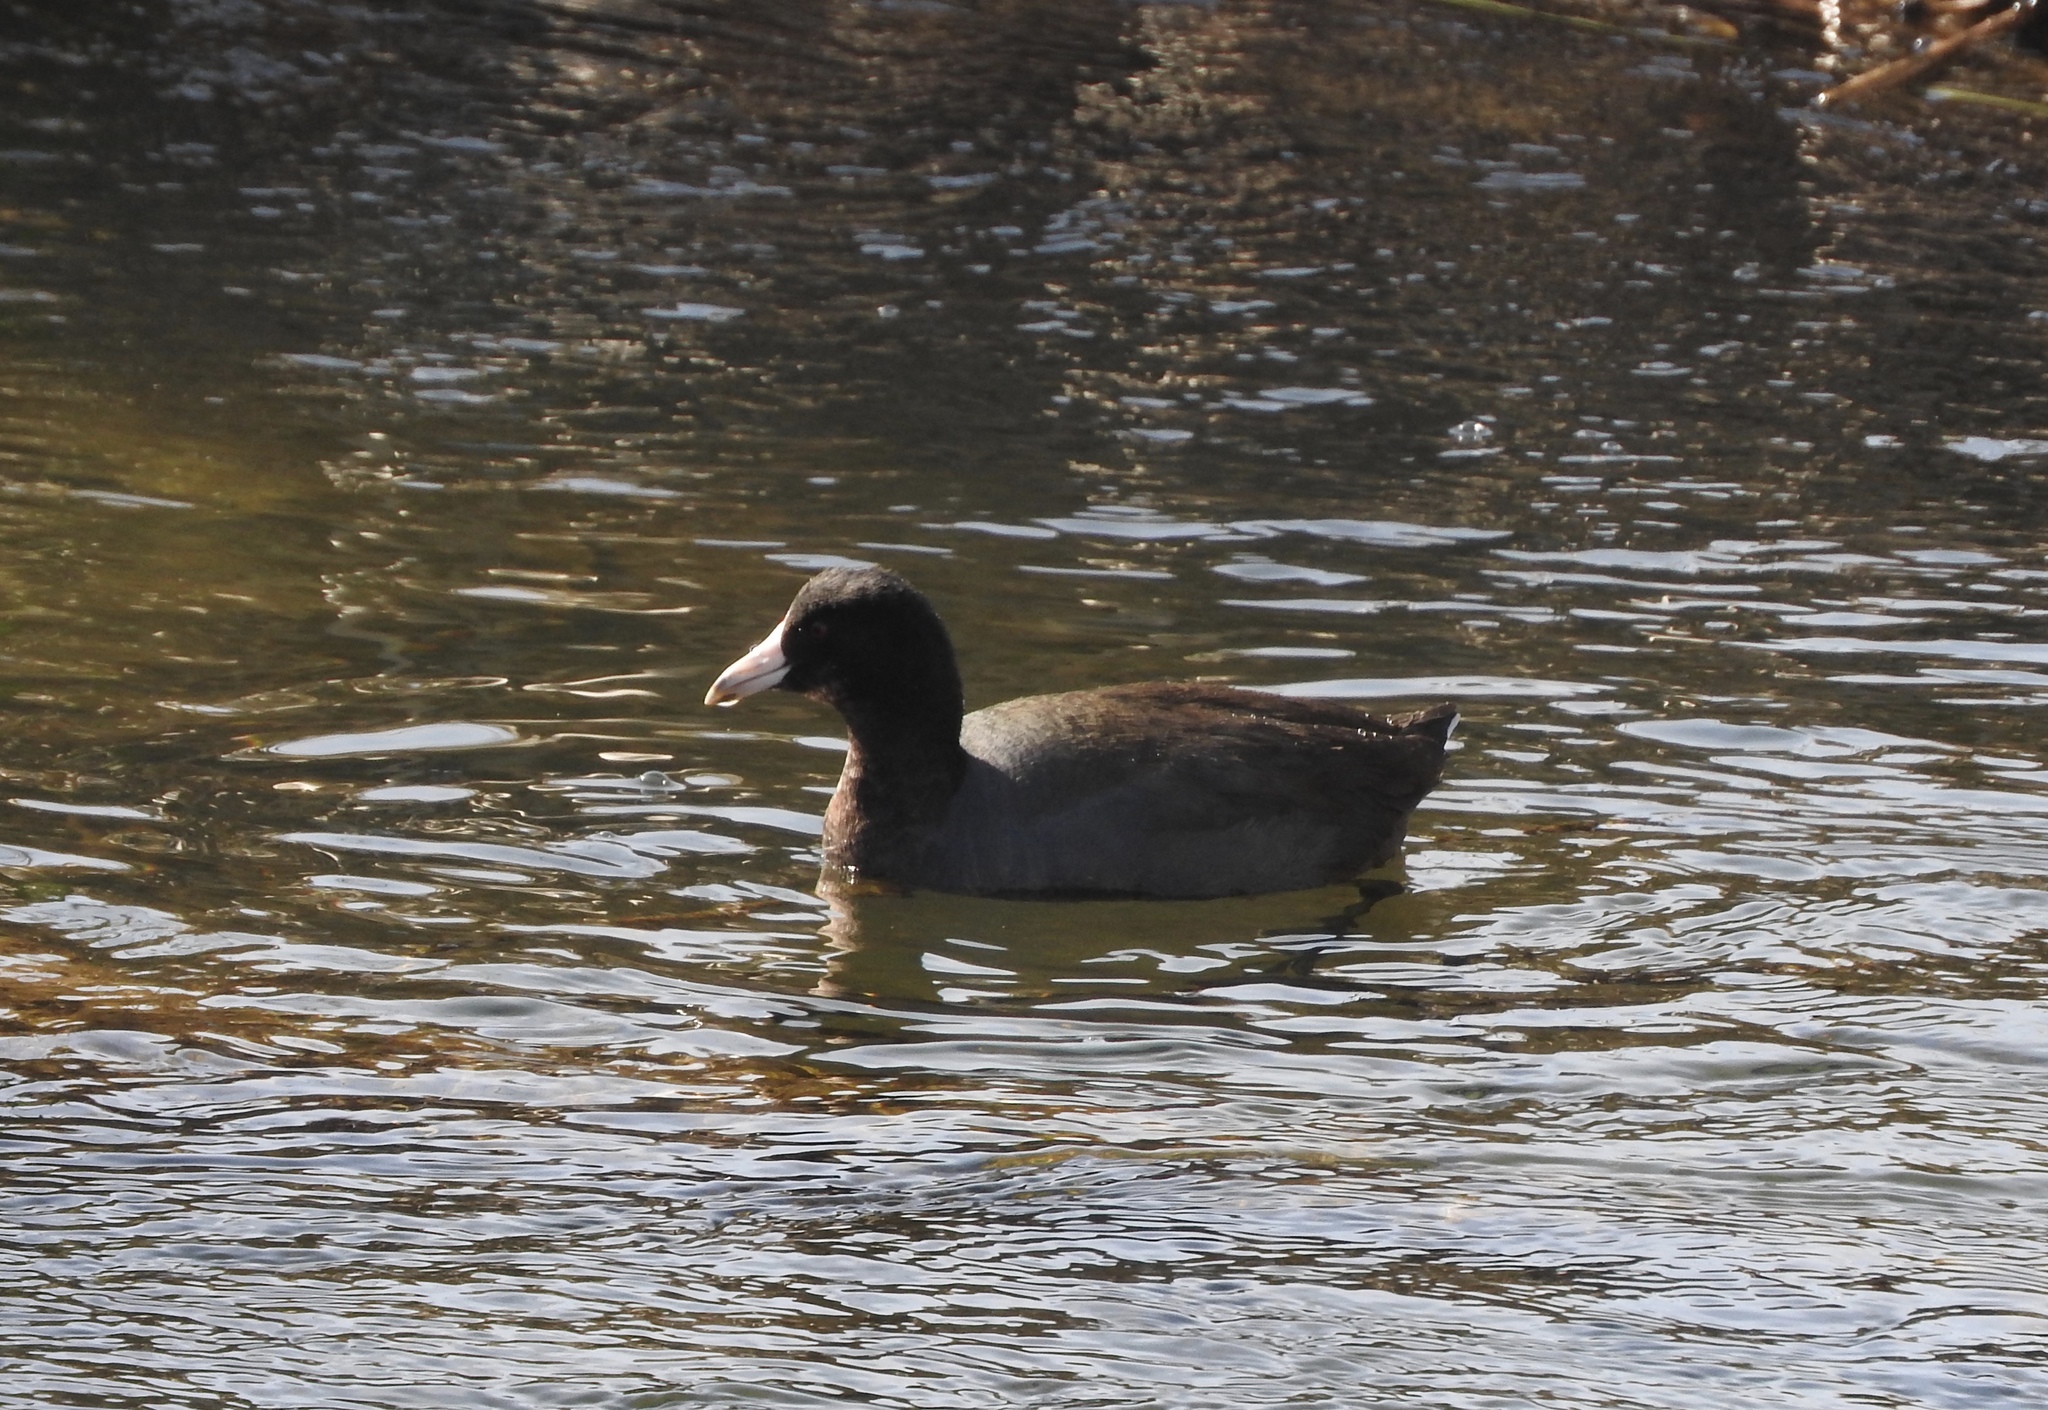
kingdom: Animalia
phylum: Chordata
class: Aves
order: Gruiformes
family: Rallidae
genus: Fulica
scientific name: Fulica americana
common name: American coot
